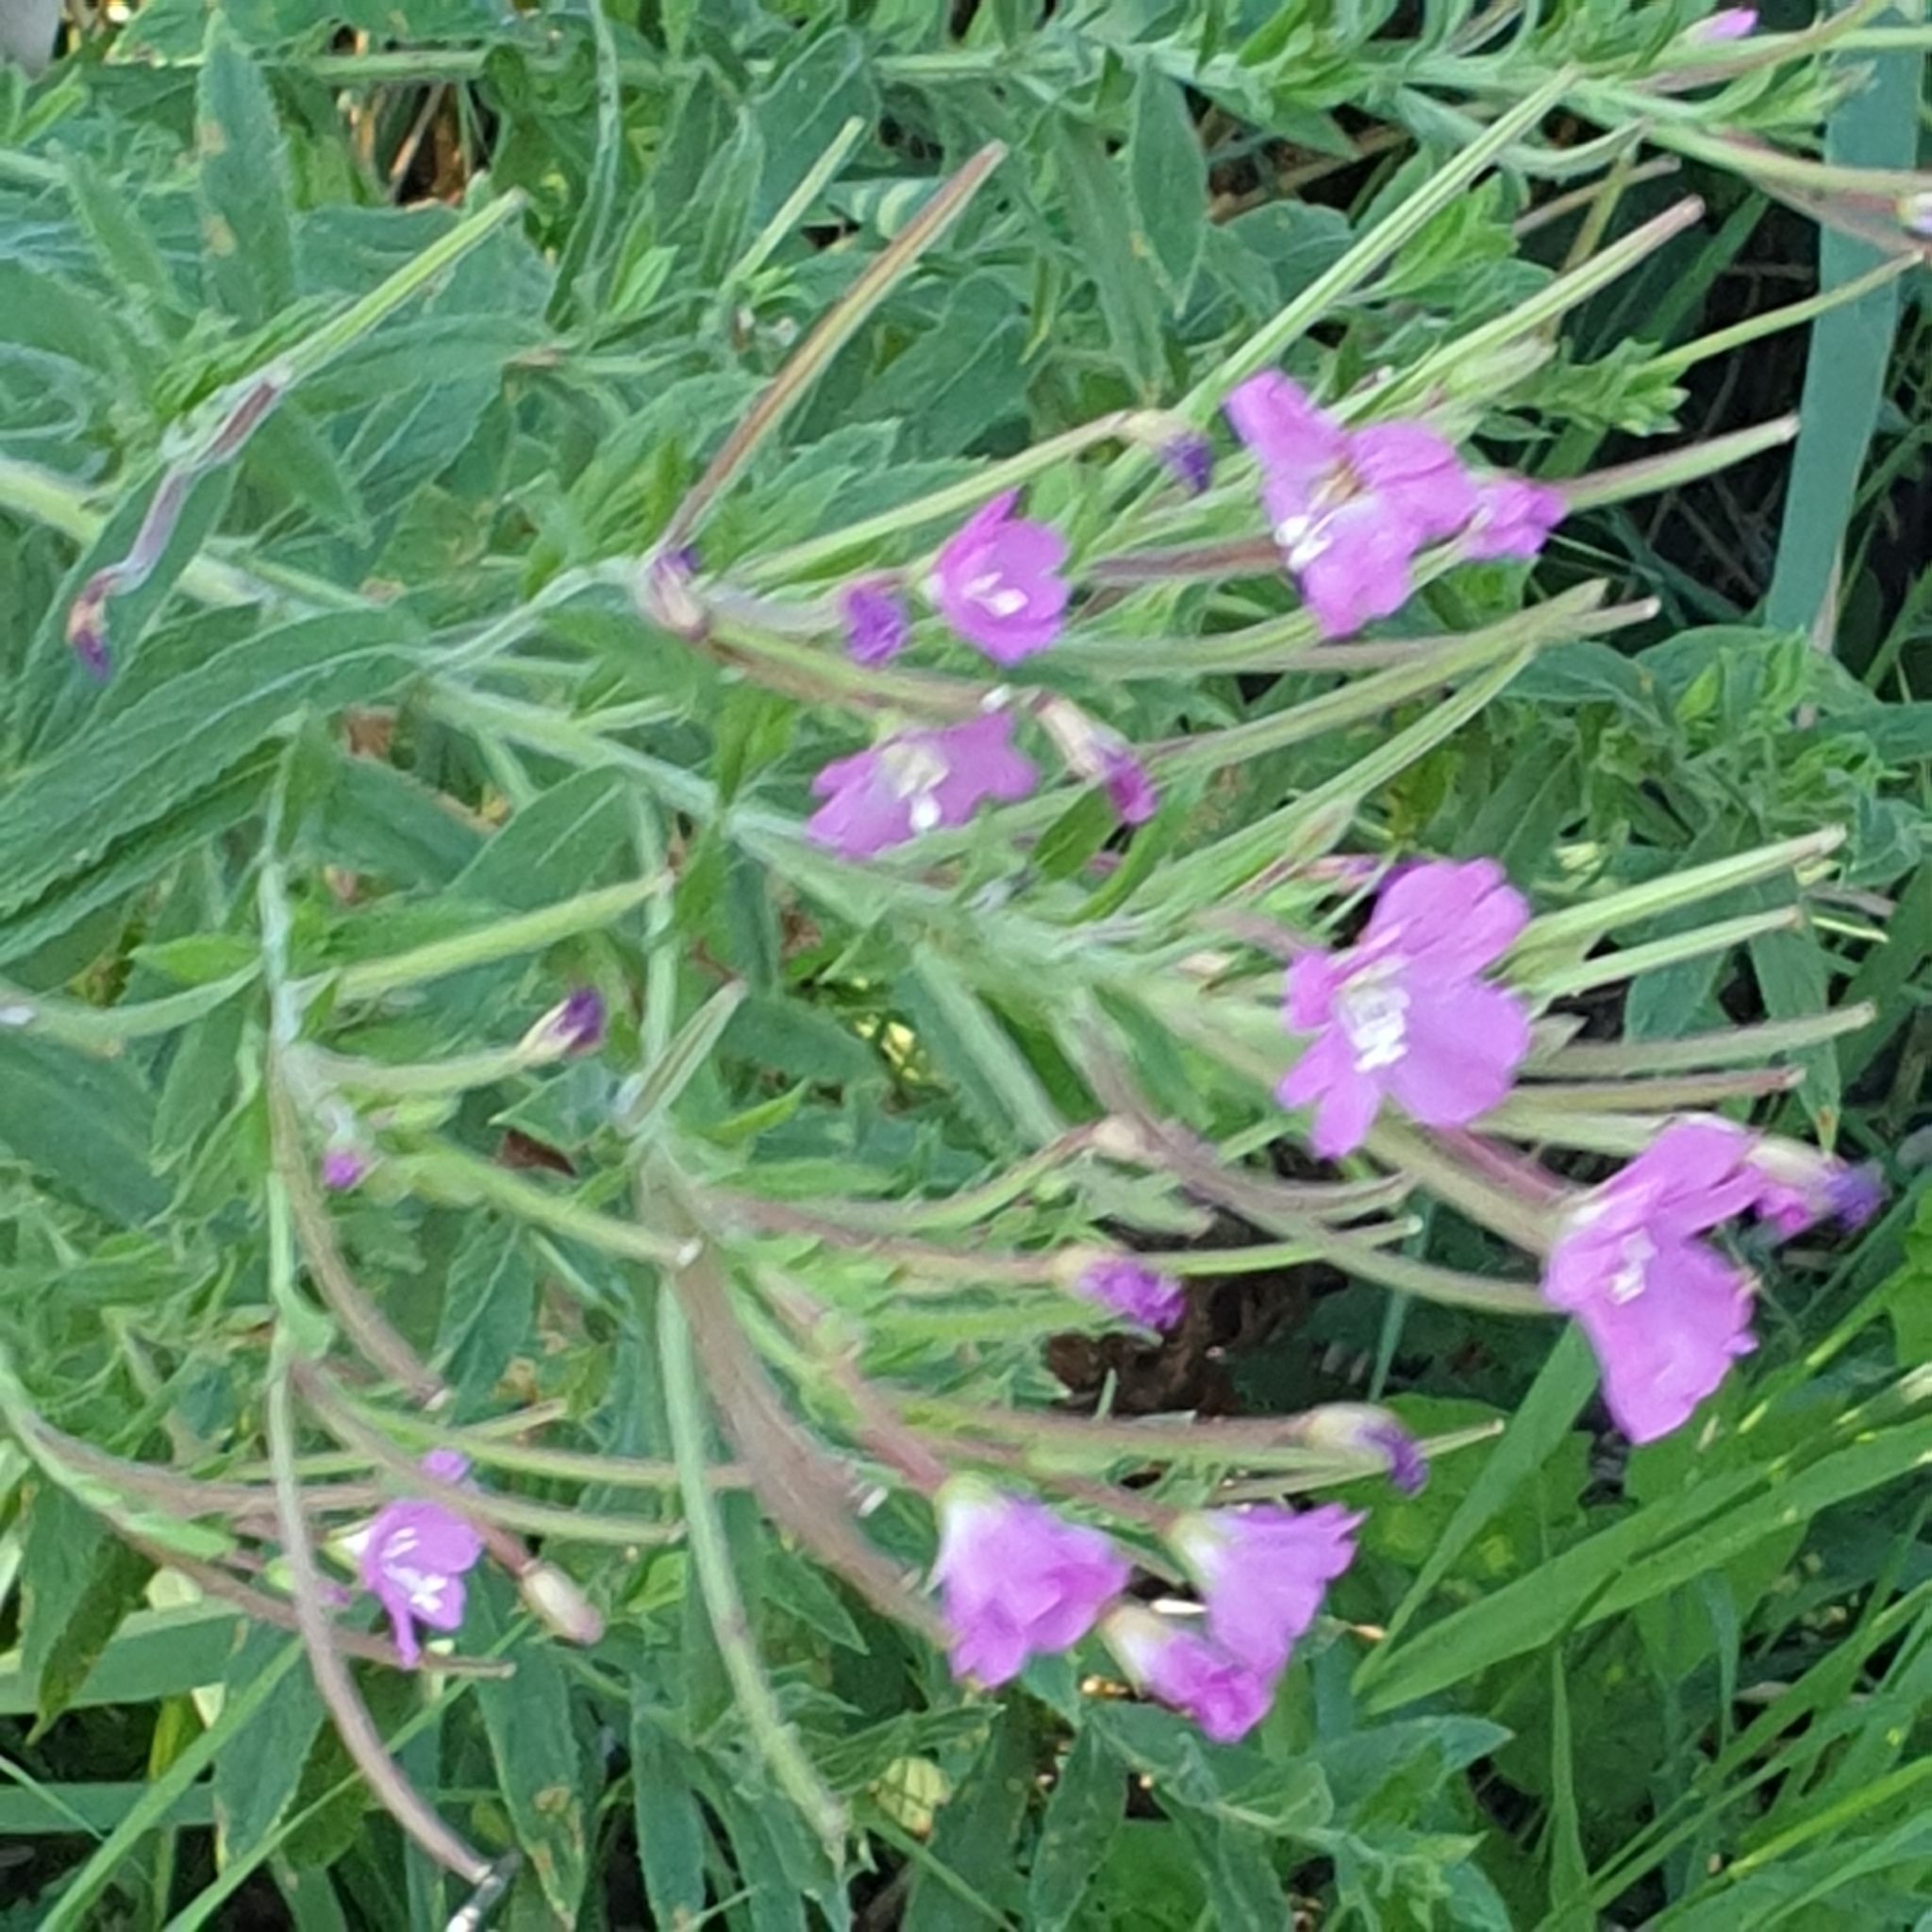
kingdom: Plantae
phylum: Tracheophyta
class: Magnoliopsida
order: Myrtales
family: Onagraceae
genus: Epilobium
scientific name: Epilobium hirsutum
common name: Great willowherb
